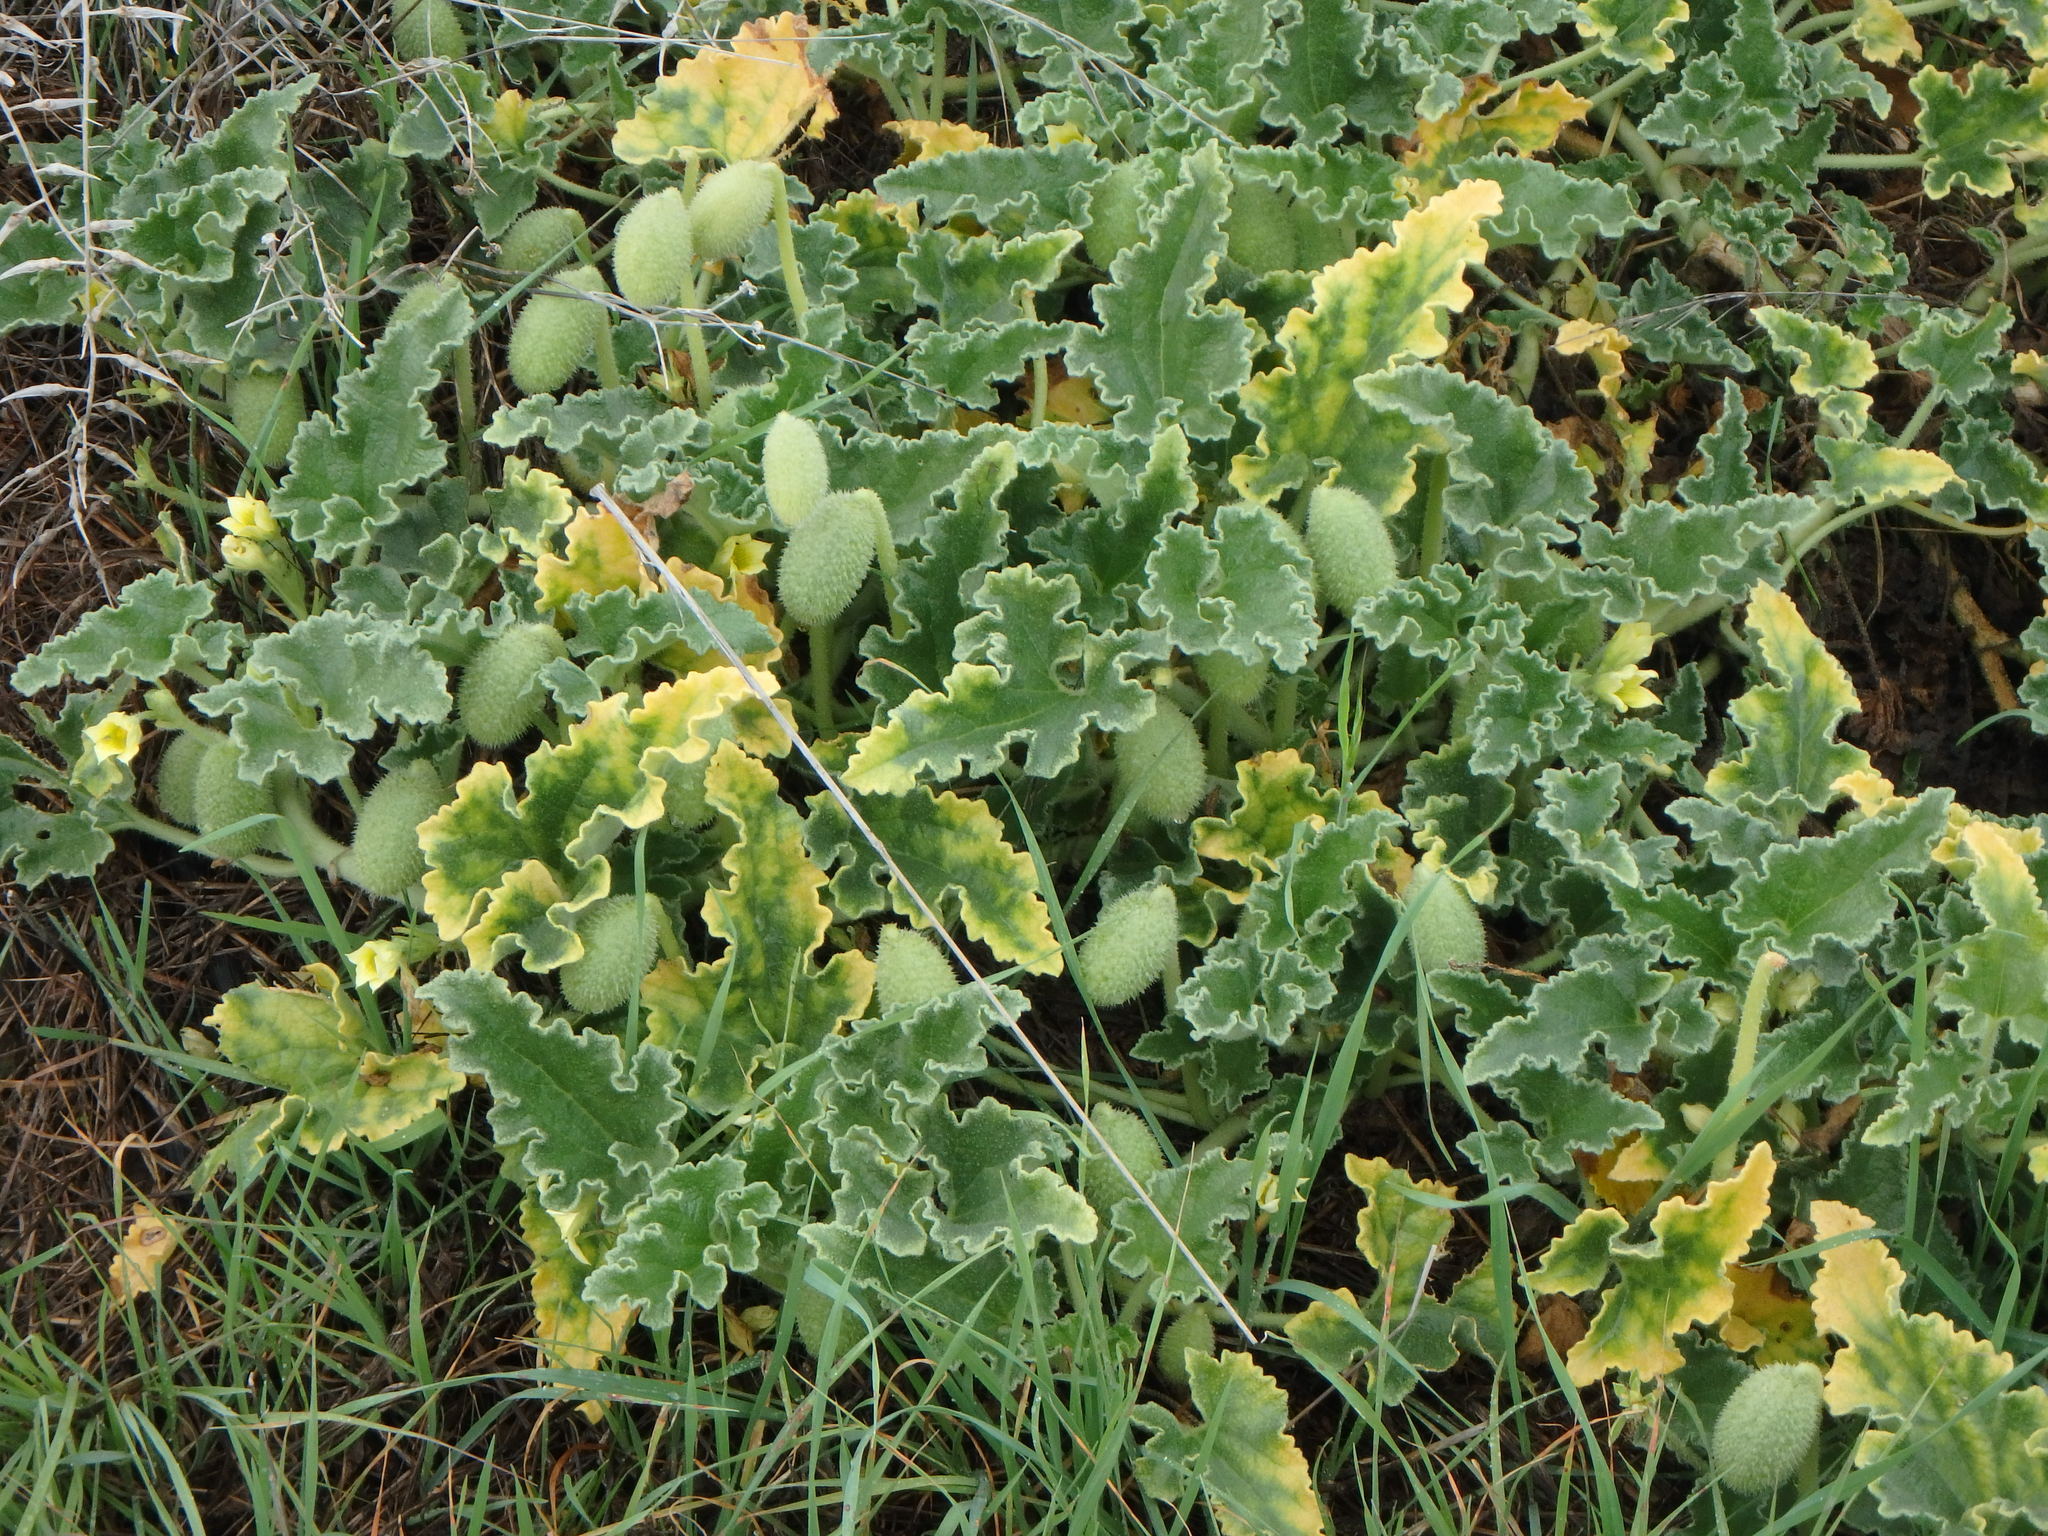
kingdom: Plantae
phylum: Tracheophyta
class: Magnoliopsida
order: Cucurbitales
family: Cucurbitaceae
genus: Ecballium
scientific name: Ecballium elaterium
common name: Squirting cucumber
